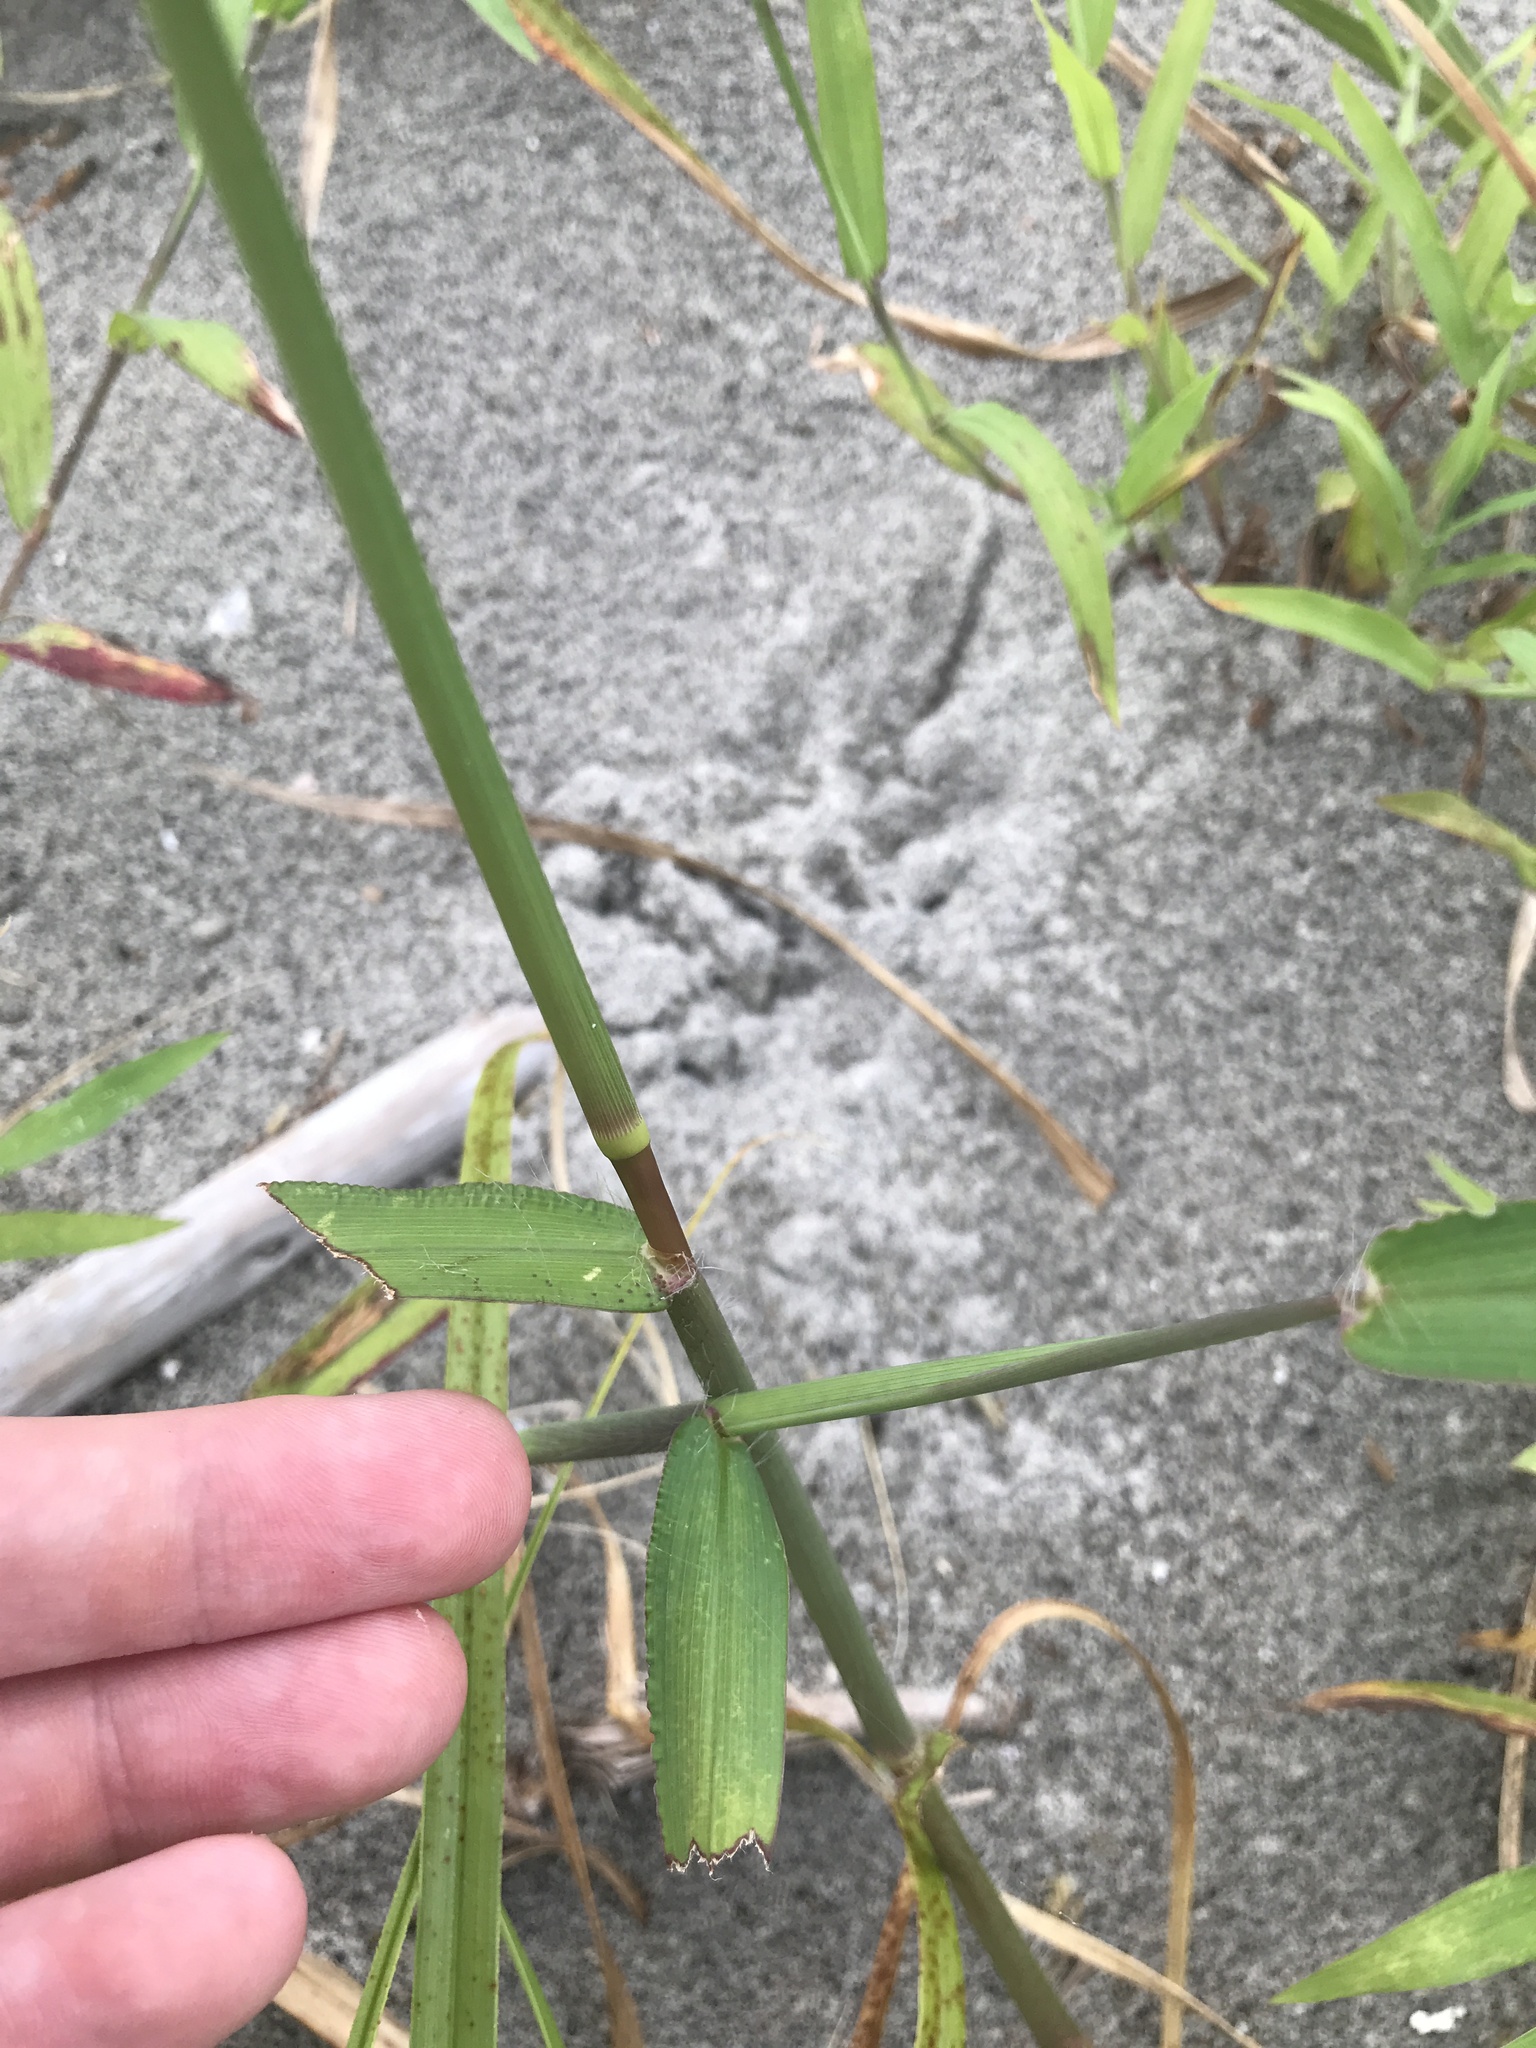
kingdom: Plantae
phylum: Tracheophyta
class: Liliopsida
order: Poales
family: Poaceae
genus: Digitaria
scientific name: Digitaria ciliaris
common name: Tropical finger-grass
